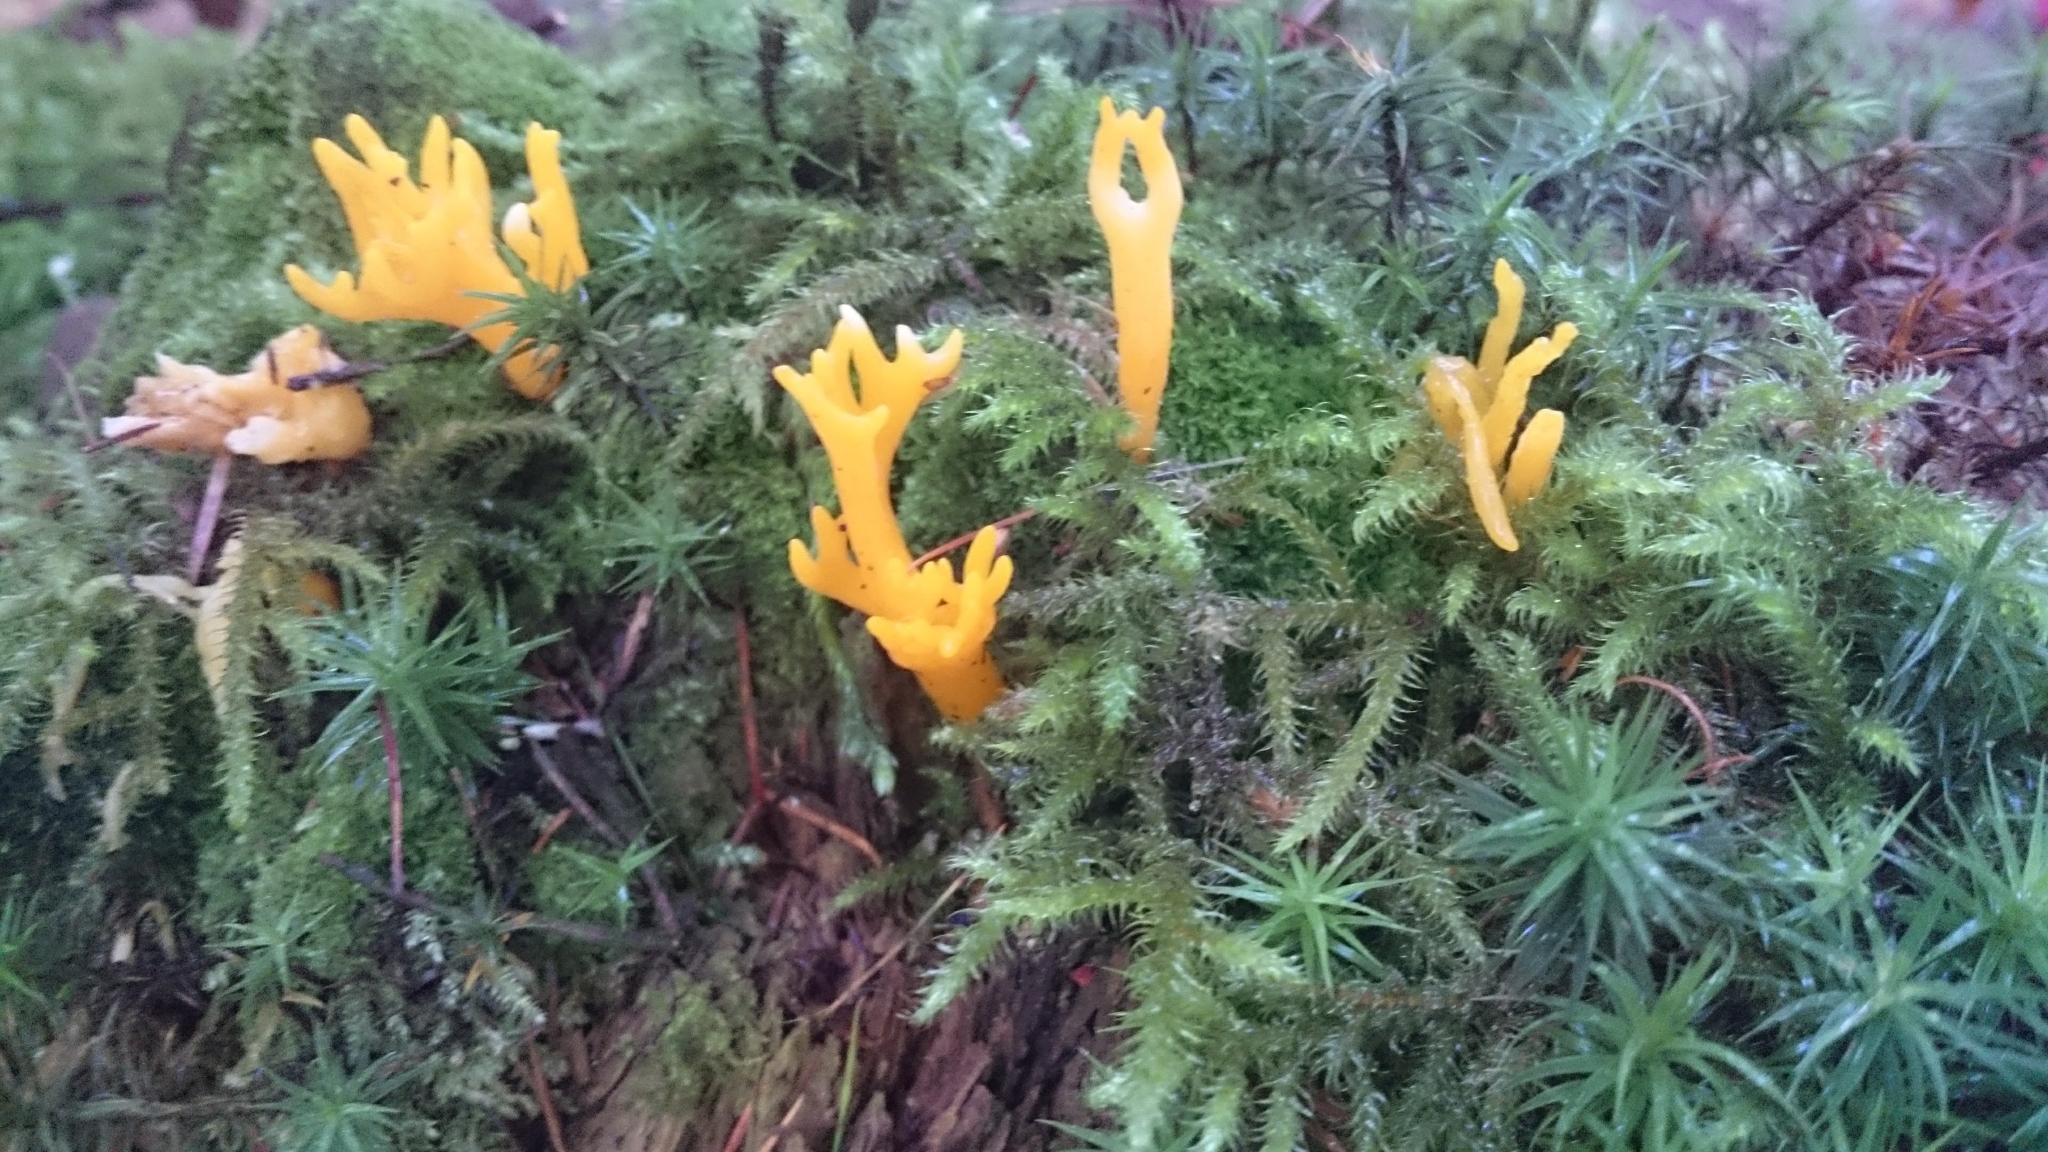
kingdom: Fungi
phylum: Basidiomycota
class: Dacrymycetes
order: Dacrymycetales
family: Dacrymycetaceae
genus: Calocera
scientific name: Calocera viscosa
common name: Yellow stagshorn
